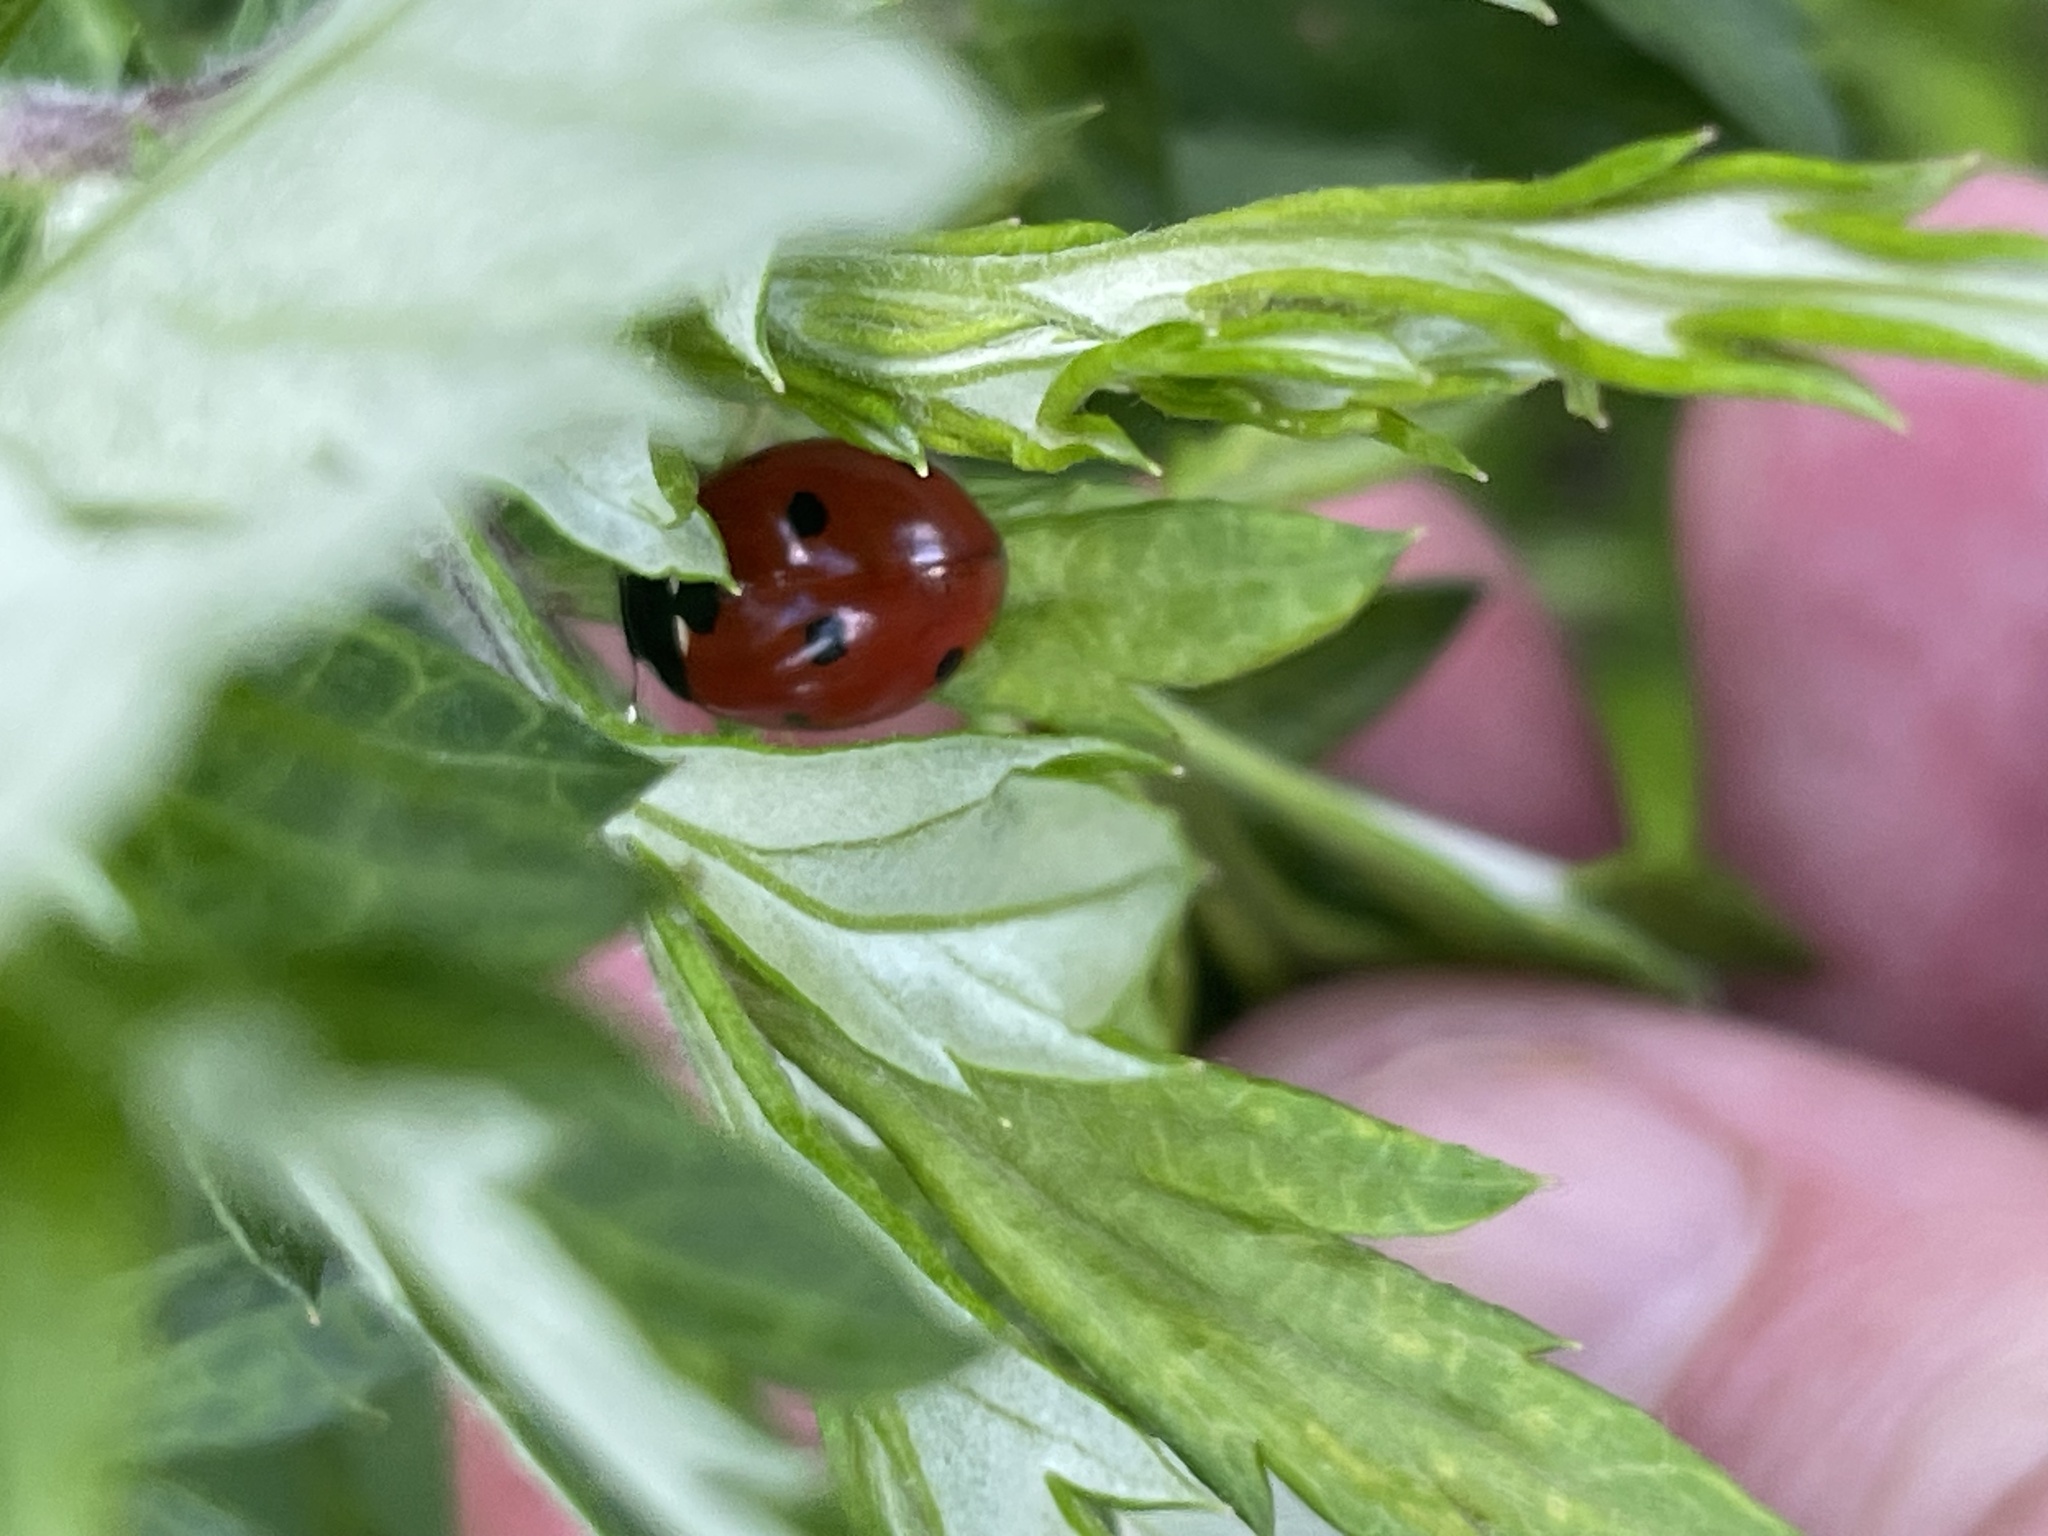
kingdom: Animalia
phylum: Arthropoda
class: Insecta
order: Coleoptera
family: Coccinellidae
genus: Coccinella
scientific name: Coccinella septempunctata
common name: Sevenspotted lady beetle
